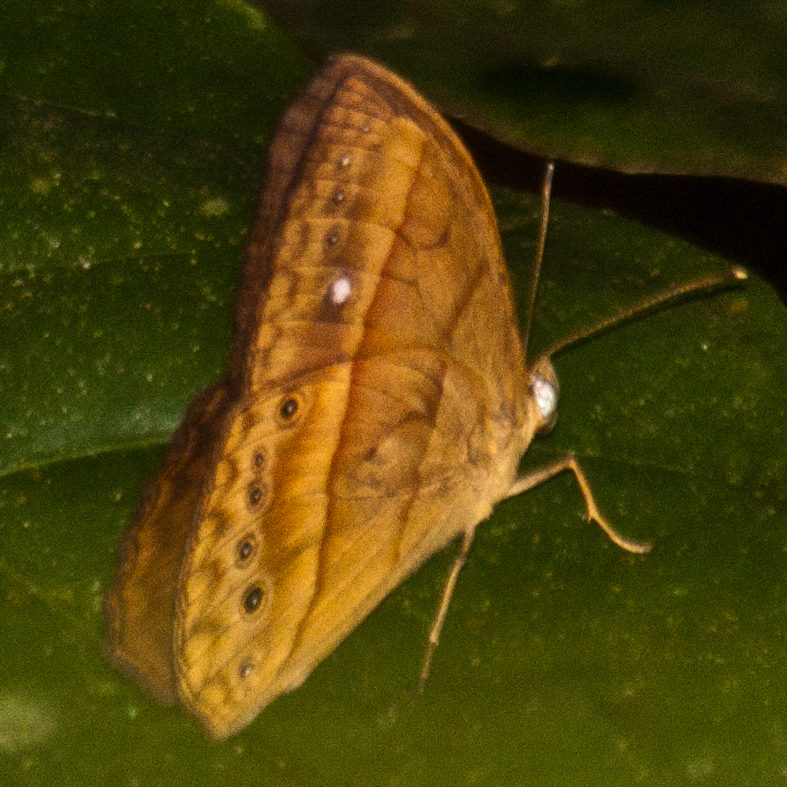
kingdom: Animalia
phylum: Arthropoda
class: Insecta
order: Lepidoptera
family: Nymphalidae
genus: Mycalesis
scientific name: Mycalesis mnasicles
